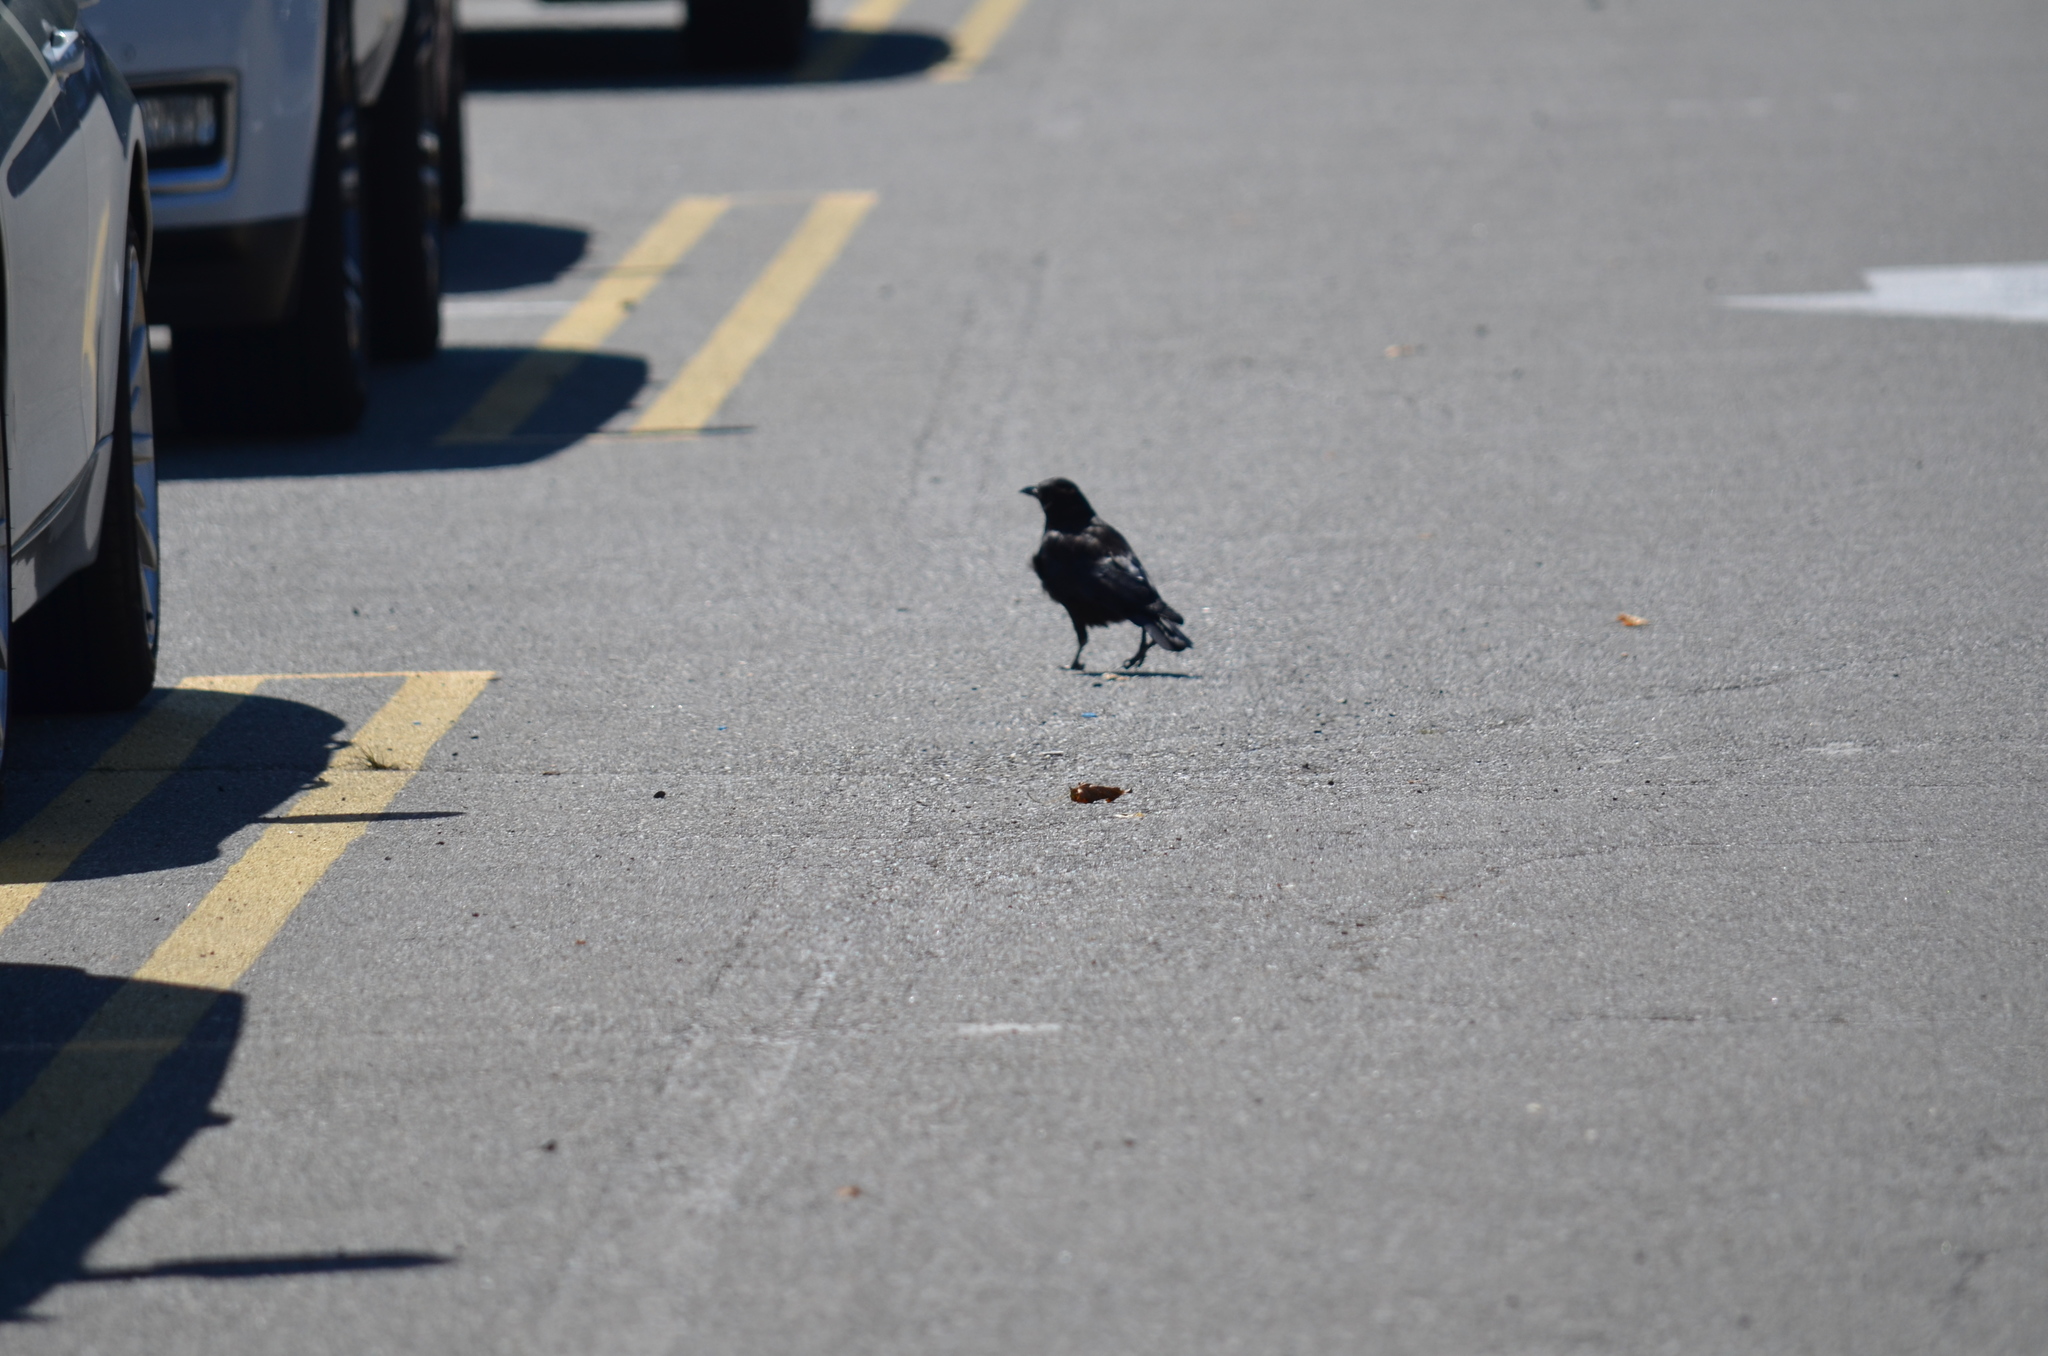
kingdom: Animalia
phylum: Chordata
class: Aves
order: Passeriformes
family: Corvidae
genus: Corvus
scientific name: Corvus brachyrhynchos
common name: American crow
